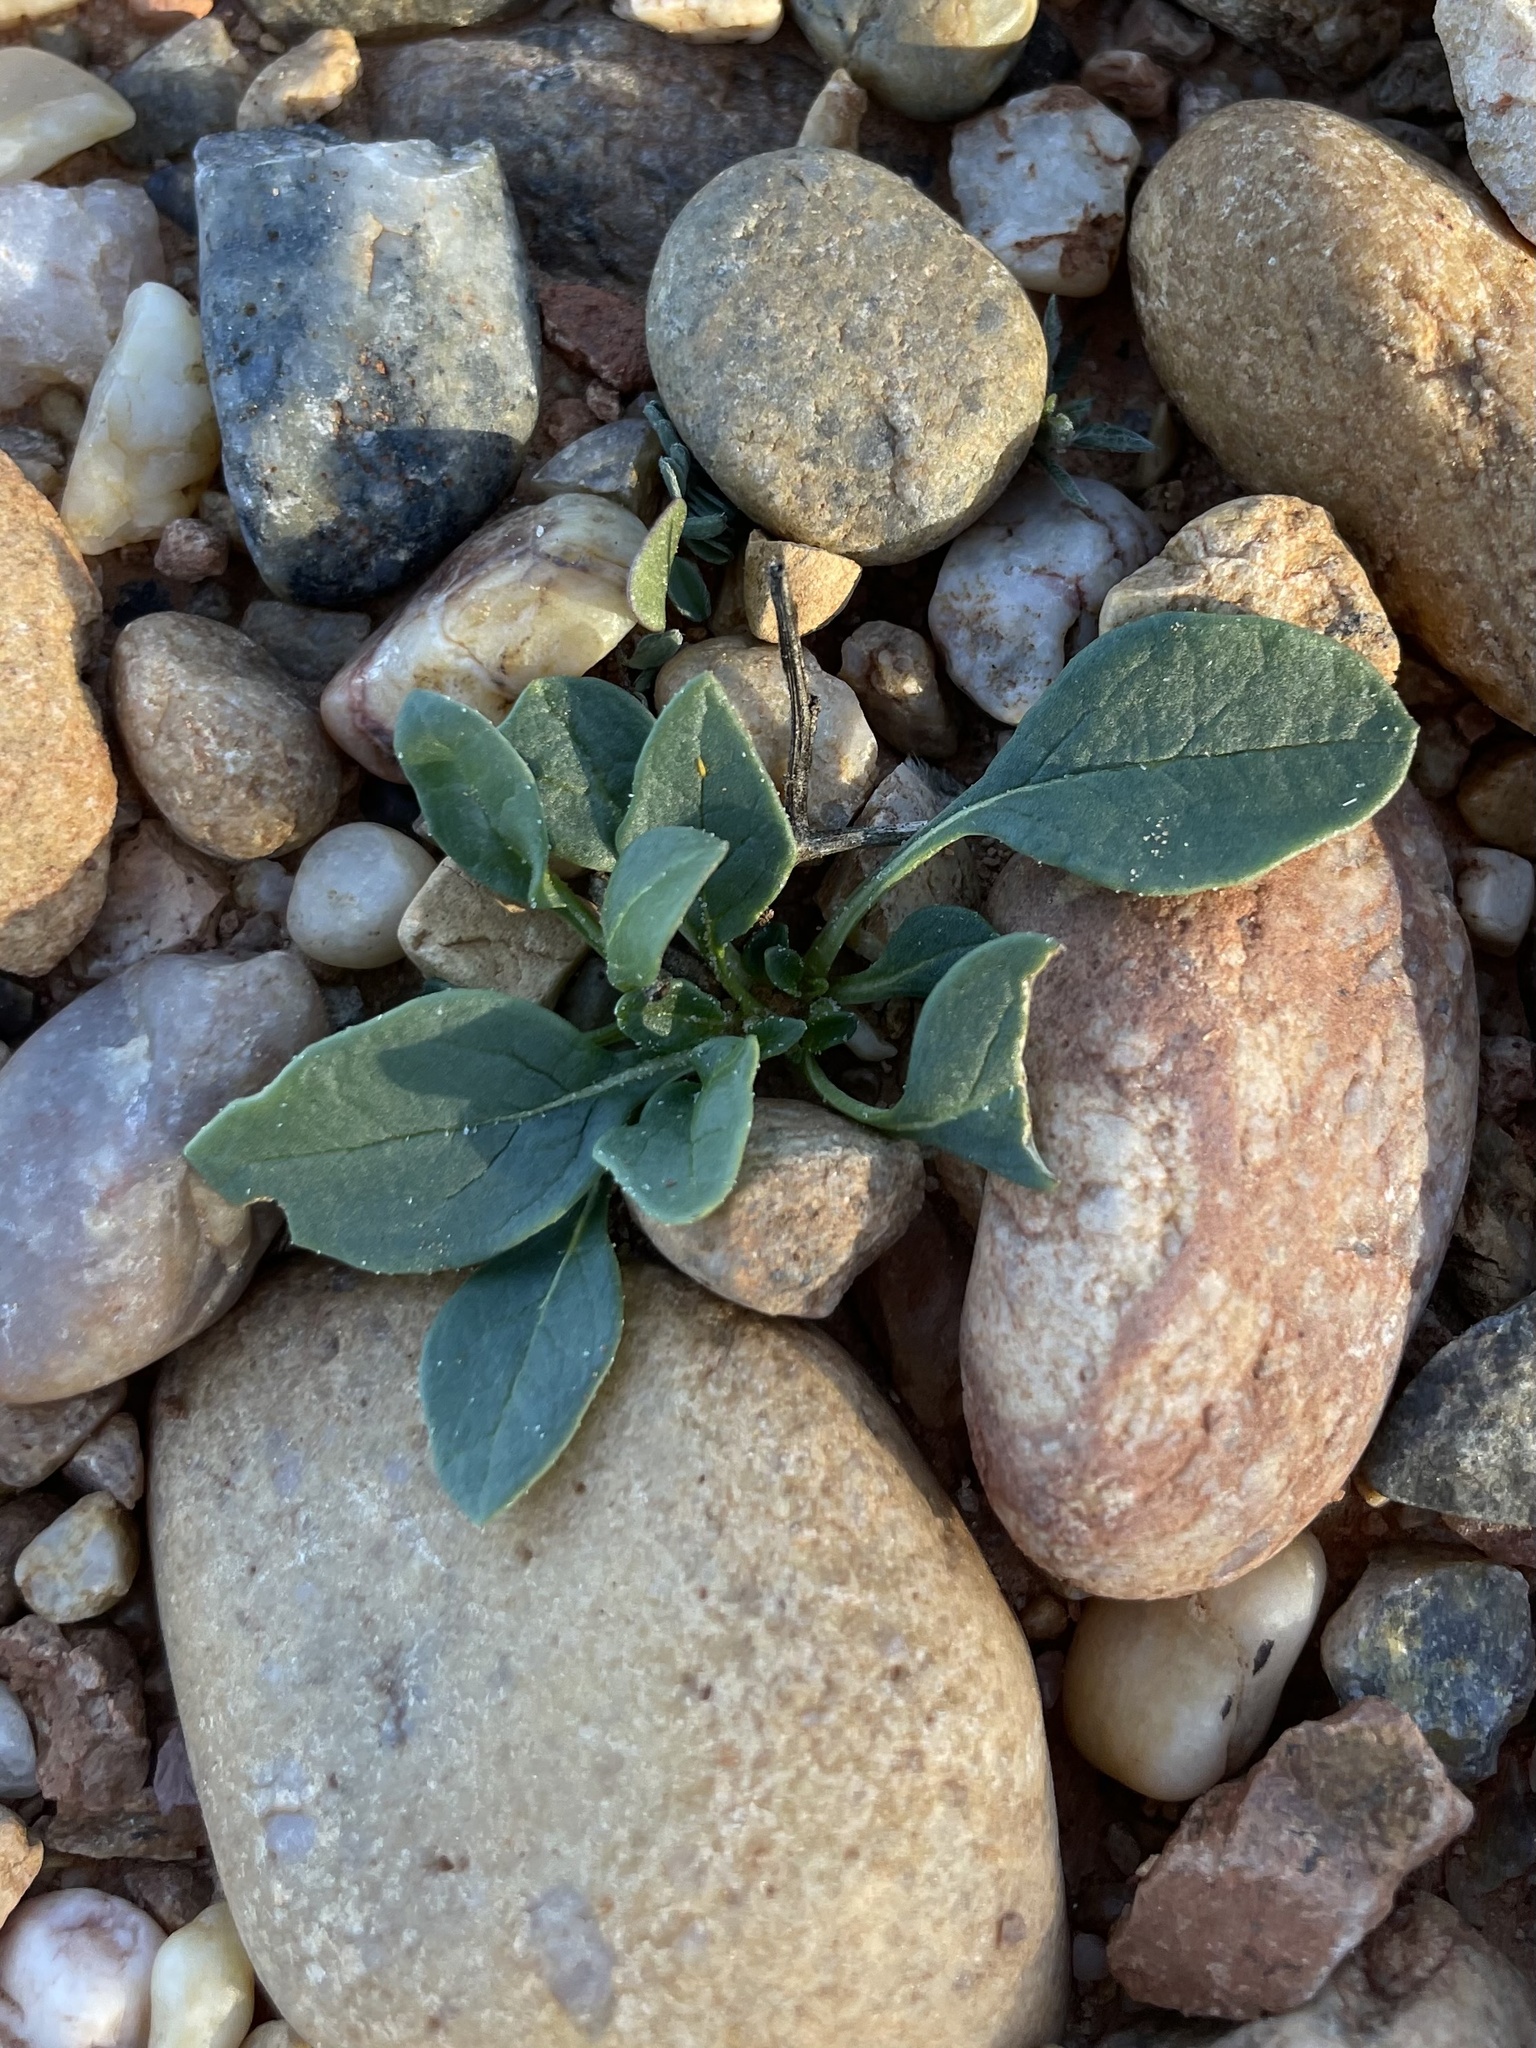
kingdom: Plantae
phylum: Tracheophyta
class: Magnoliopsida
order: Solanales
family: Solanaceae
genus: Quincula
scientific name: Quincula lobata
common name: Purple-ground-cherry
